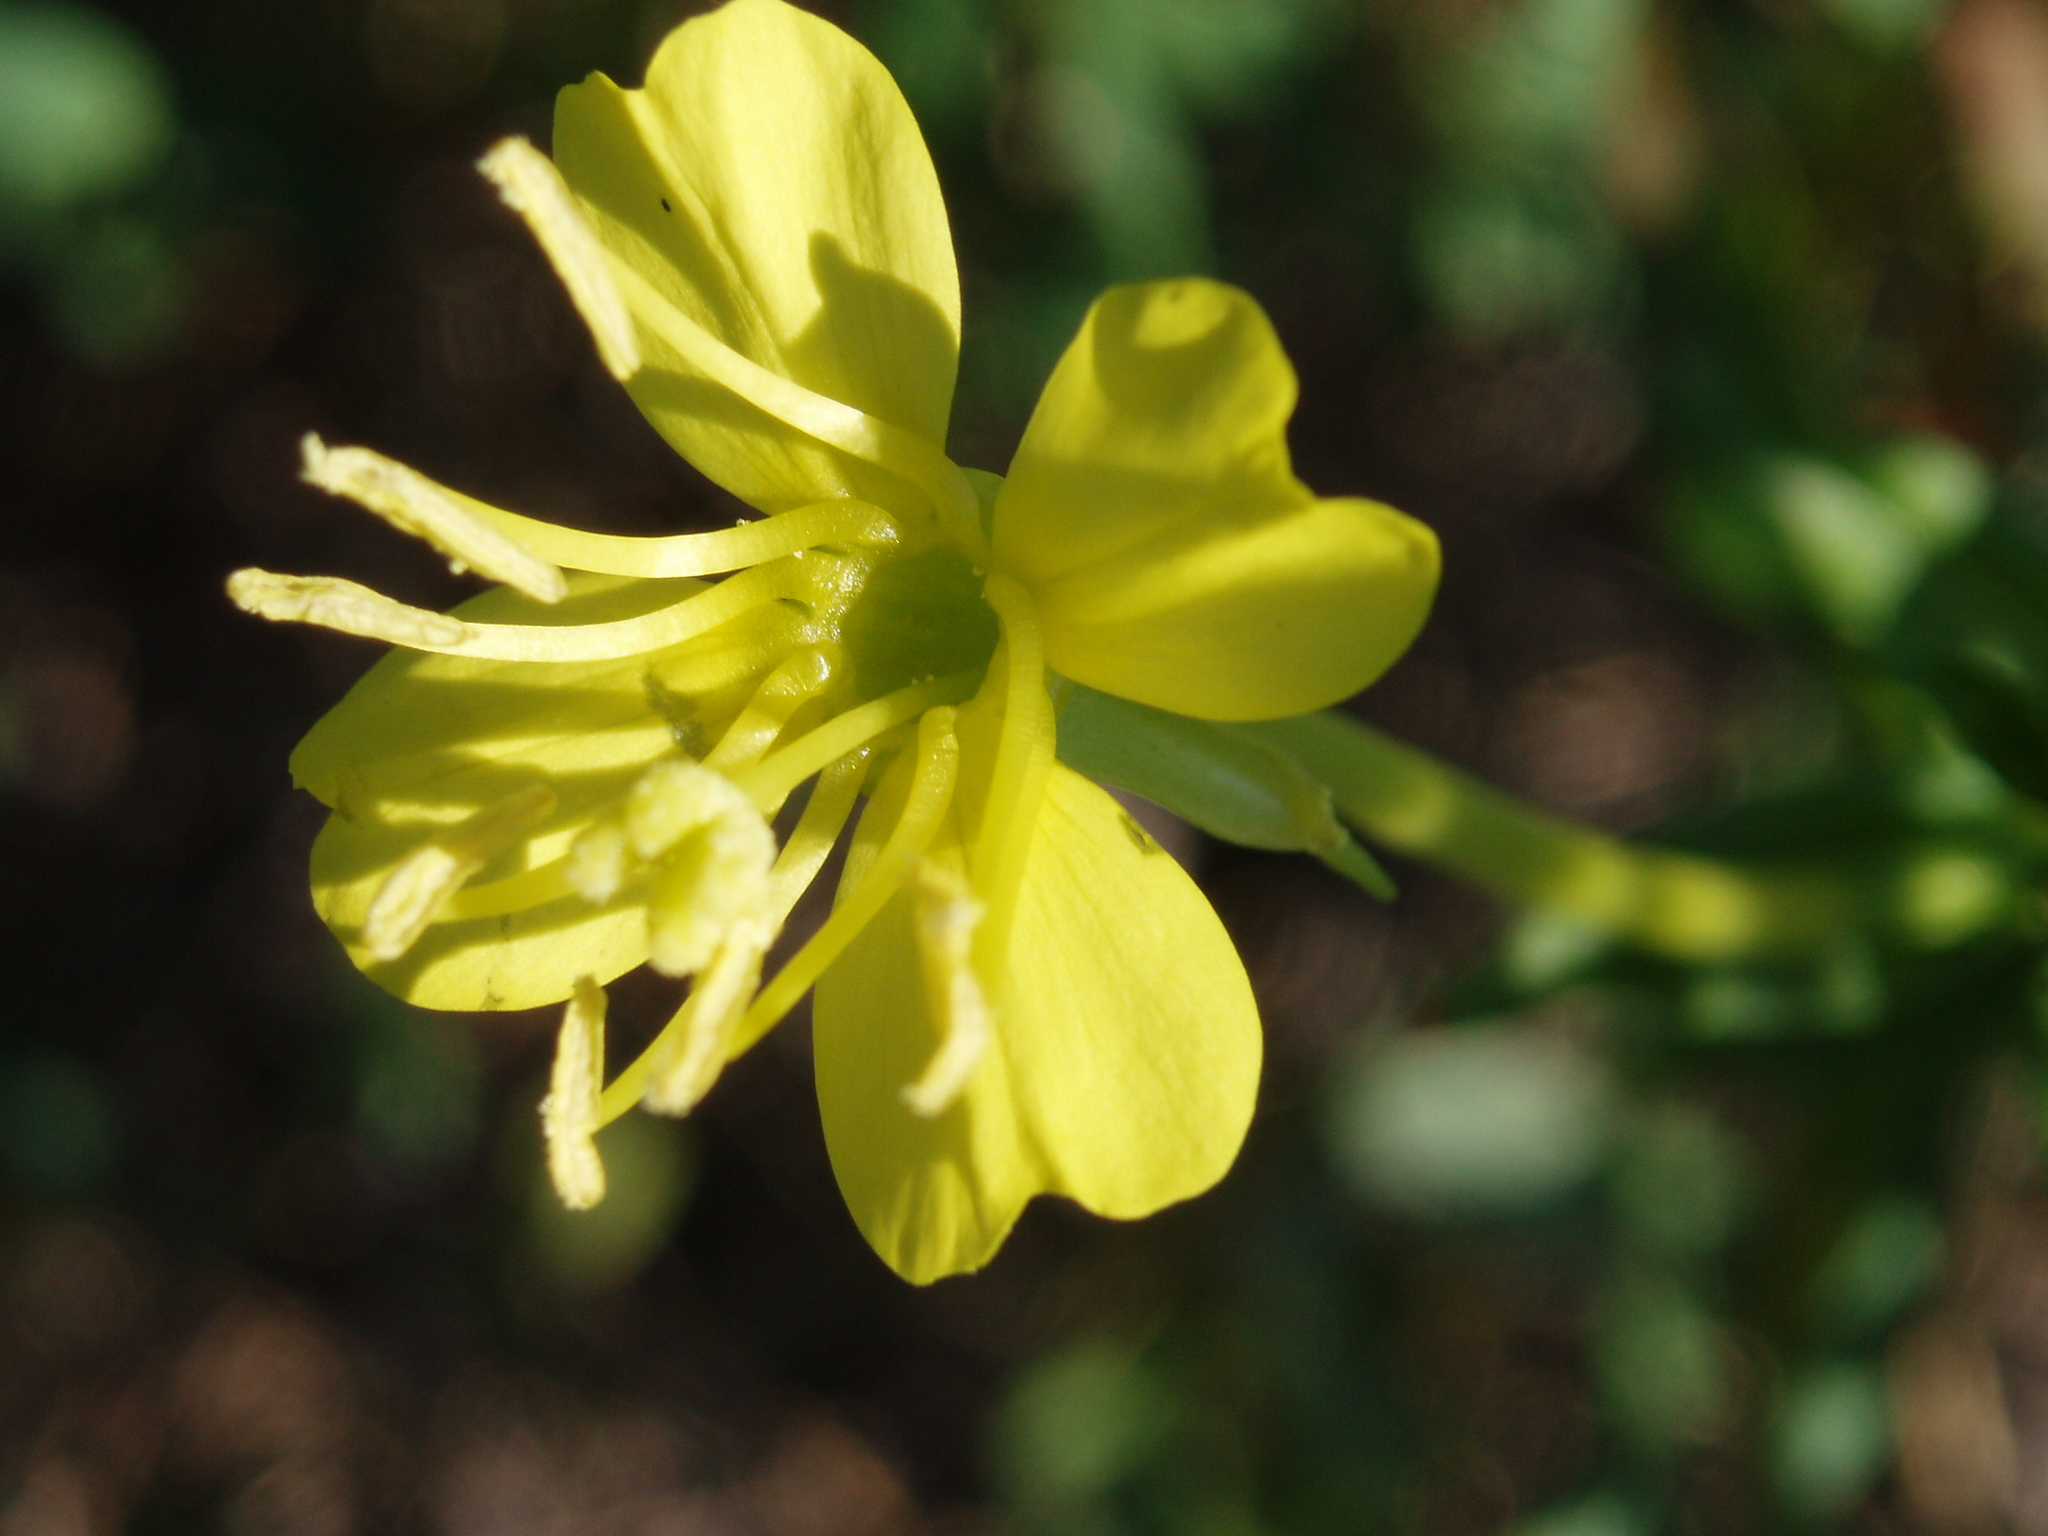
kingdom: Plantae
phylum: Tracheophyta
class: Magnoliopsida
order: Myrtales
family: Onagraceae
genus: Oenothera
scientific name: Oenothera parviflora
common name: Least evening-primrose
